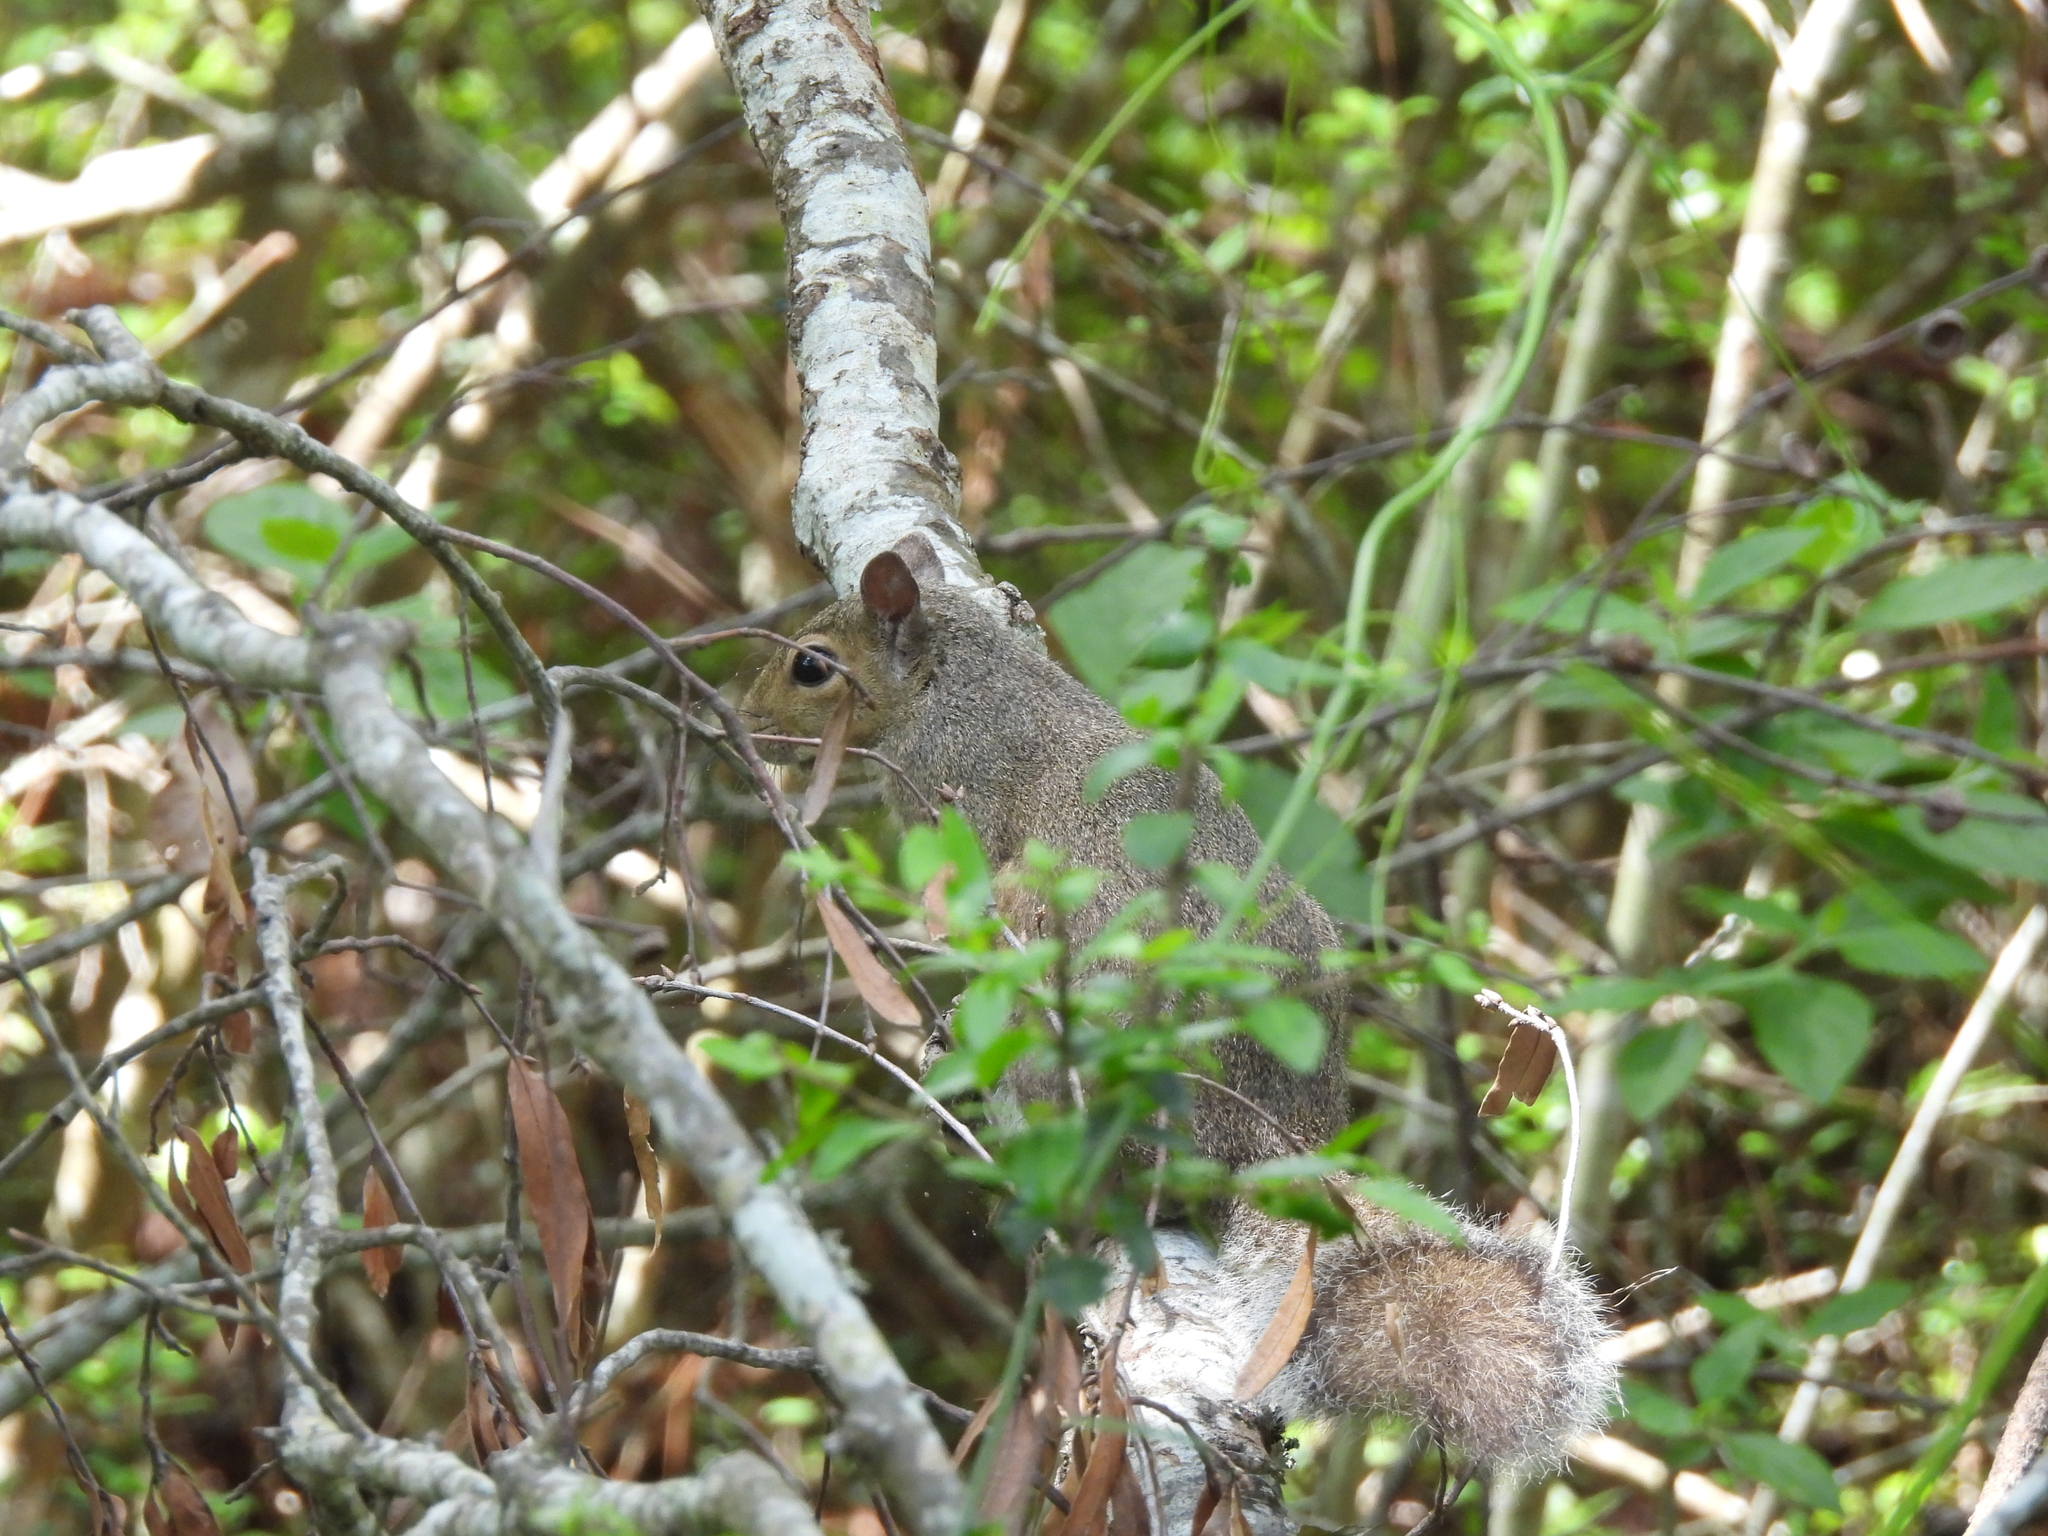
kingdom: Animalia
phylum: Chordata
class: Mammalia
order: Rodentia
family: Sciuridae
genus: Sciurus
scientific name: Sciurus carolinensis
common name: Eastern gray squirrel
